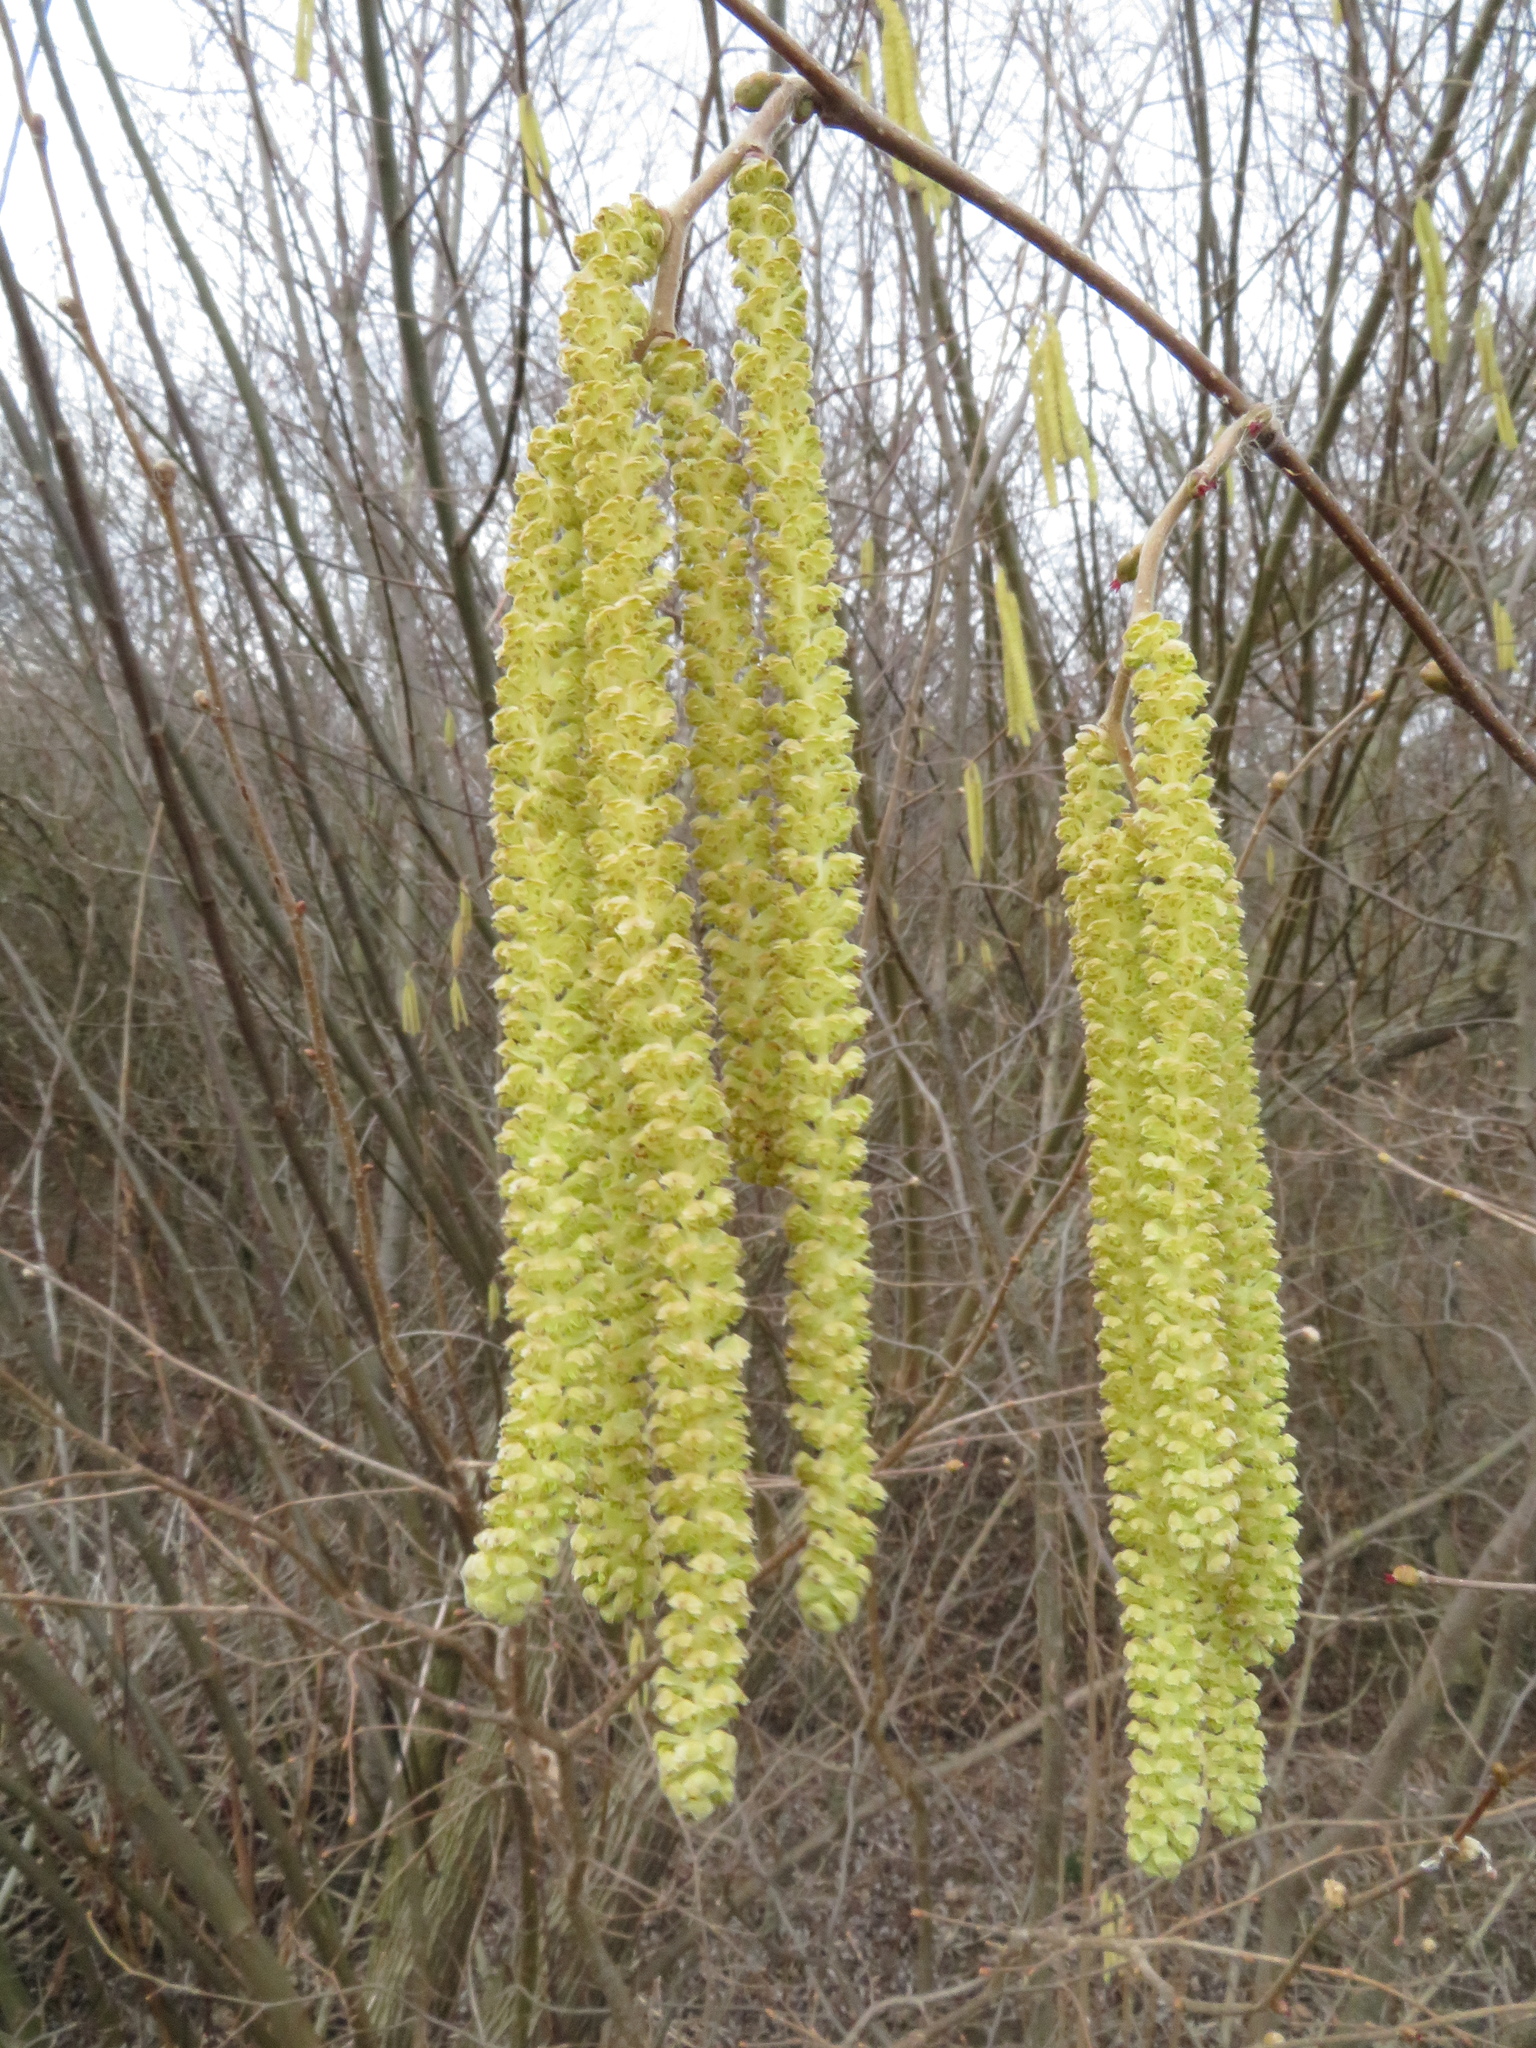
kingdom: Plantae
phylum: Tracheophyta
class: Magnoliopsida
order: Fagales
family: Betulaceae
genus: Corylus
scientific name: Corylus avellana
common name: European hazel
